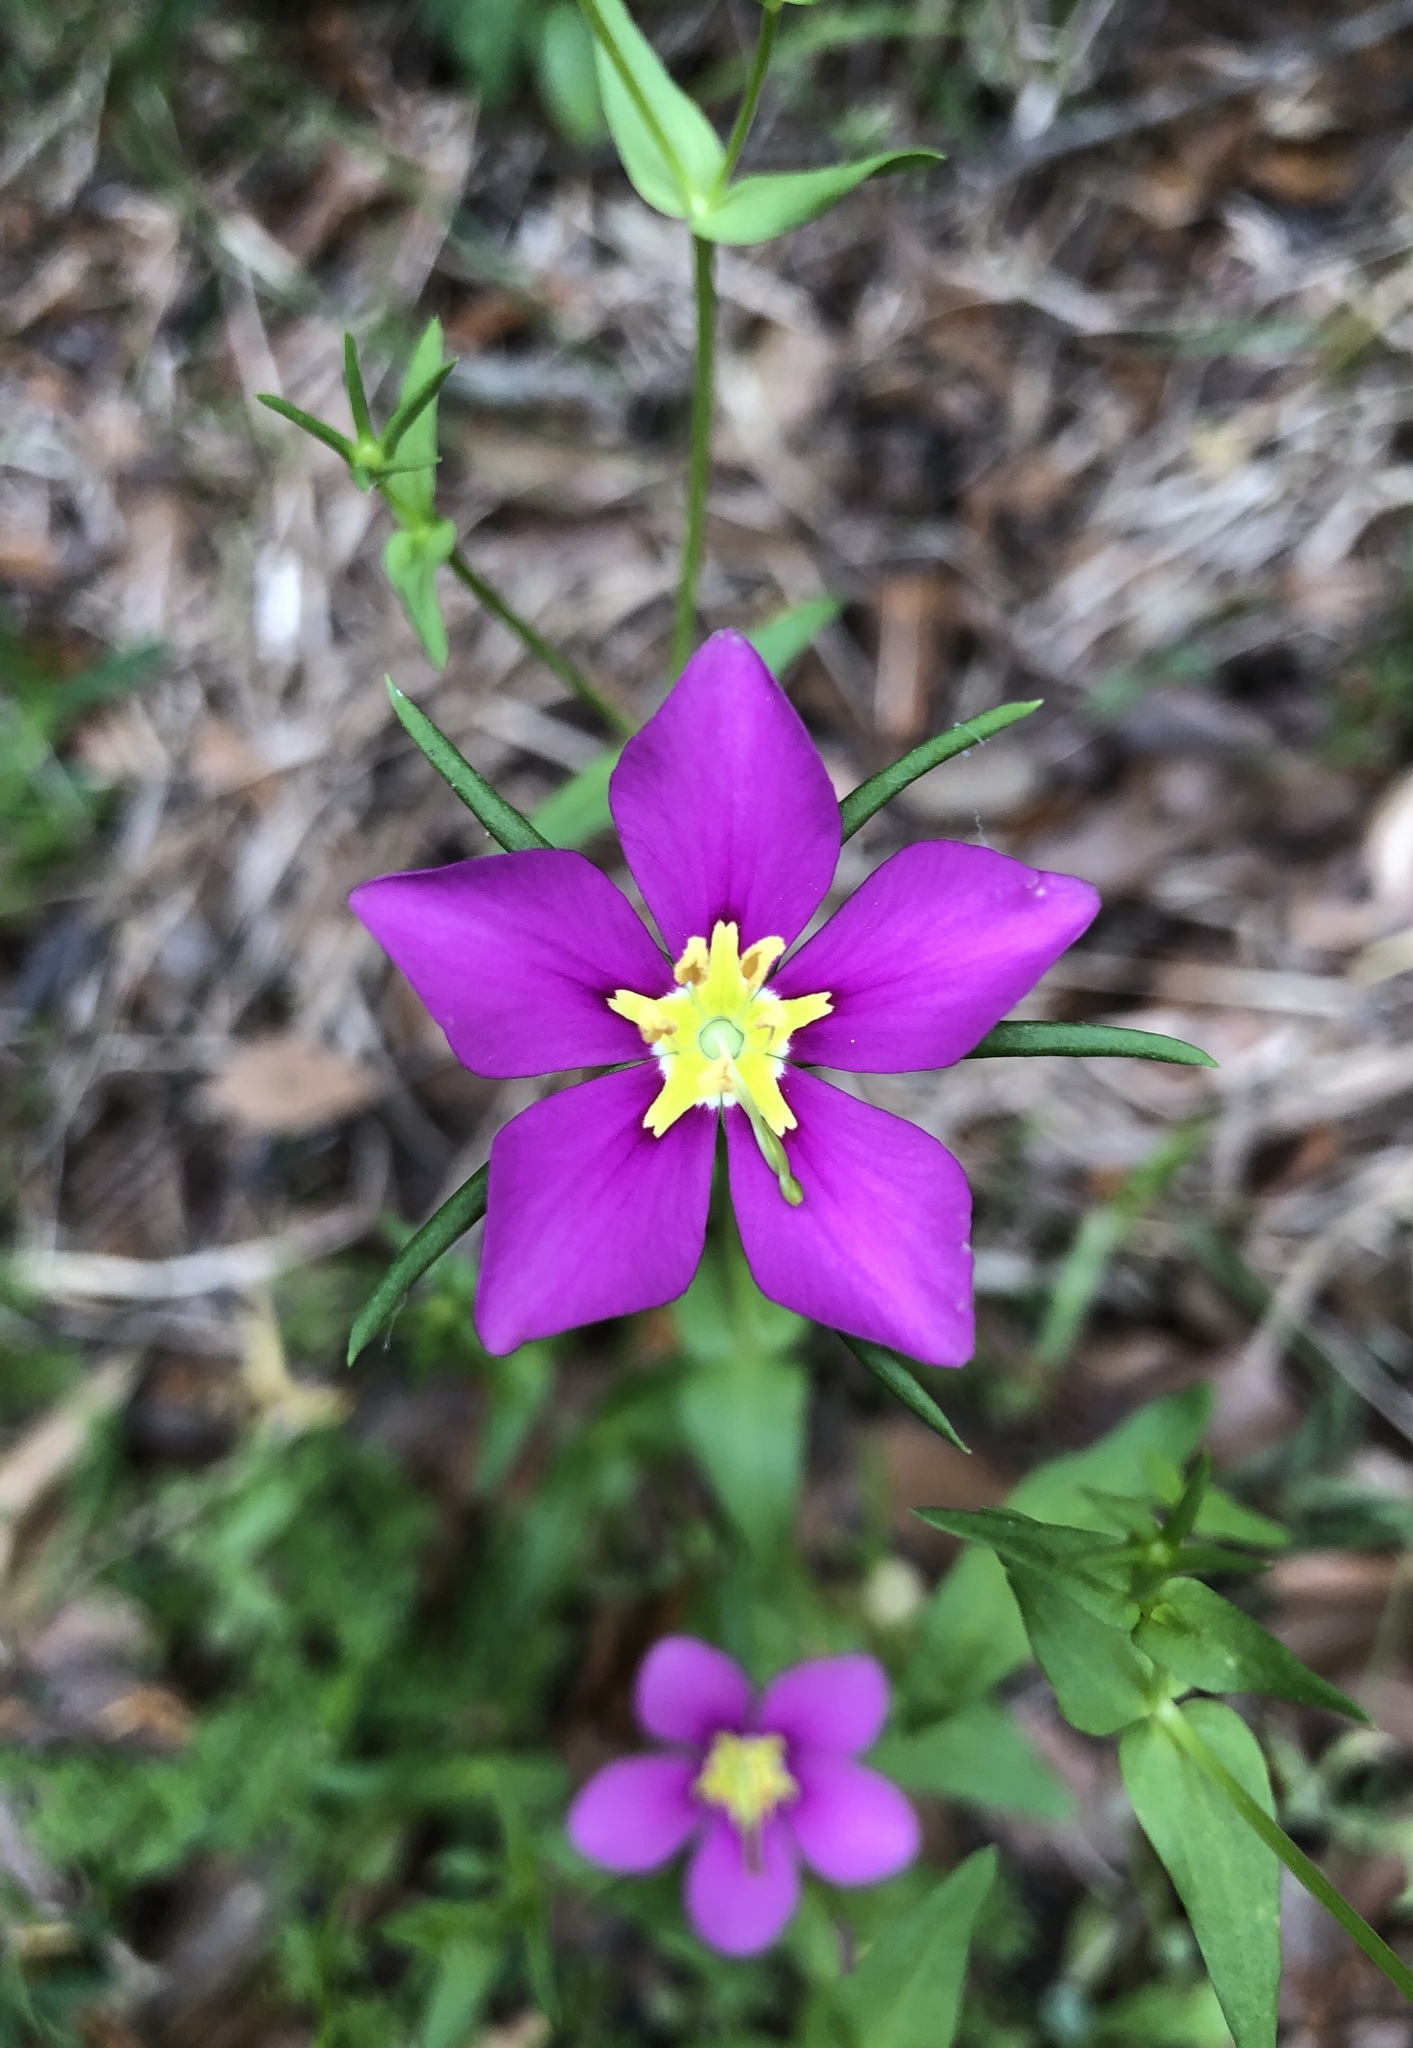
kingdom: Plantae
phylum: Tracheophyta
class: Magnoliopsida
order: Gentianales
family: Gentianaceae
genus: Sabatia
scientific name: Sabatia campestris
